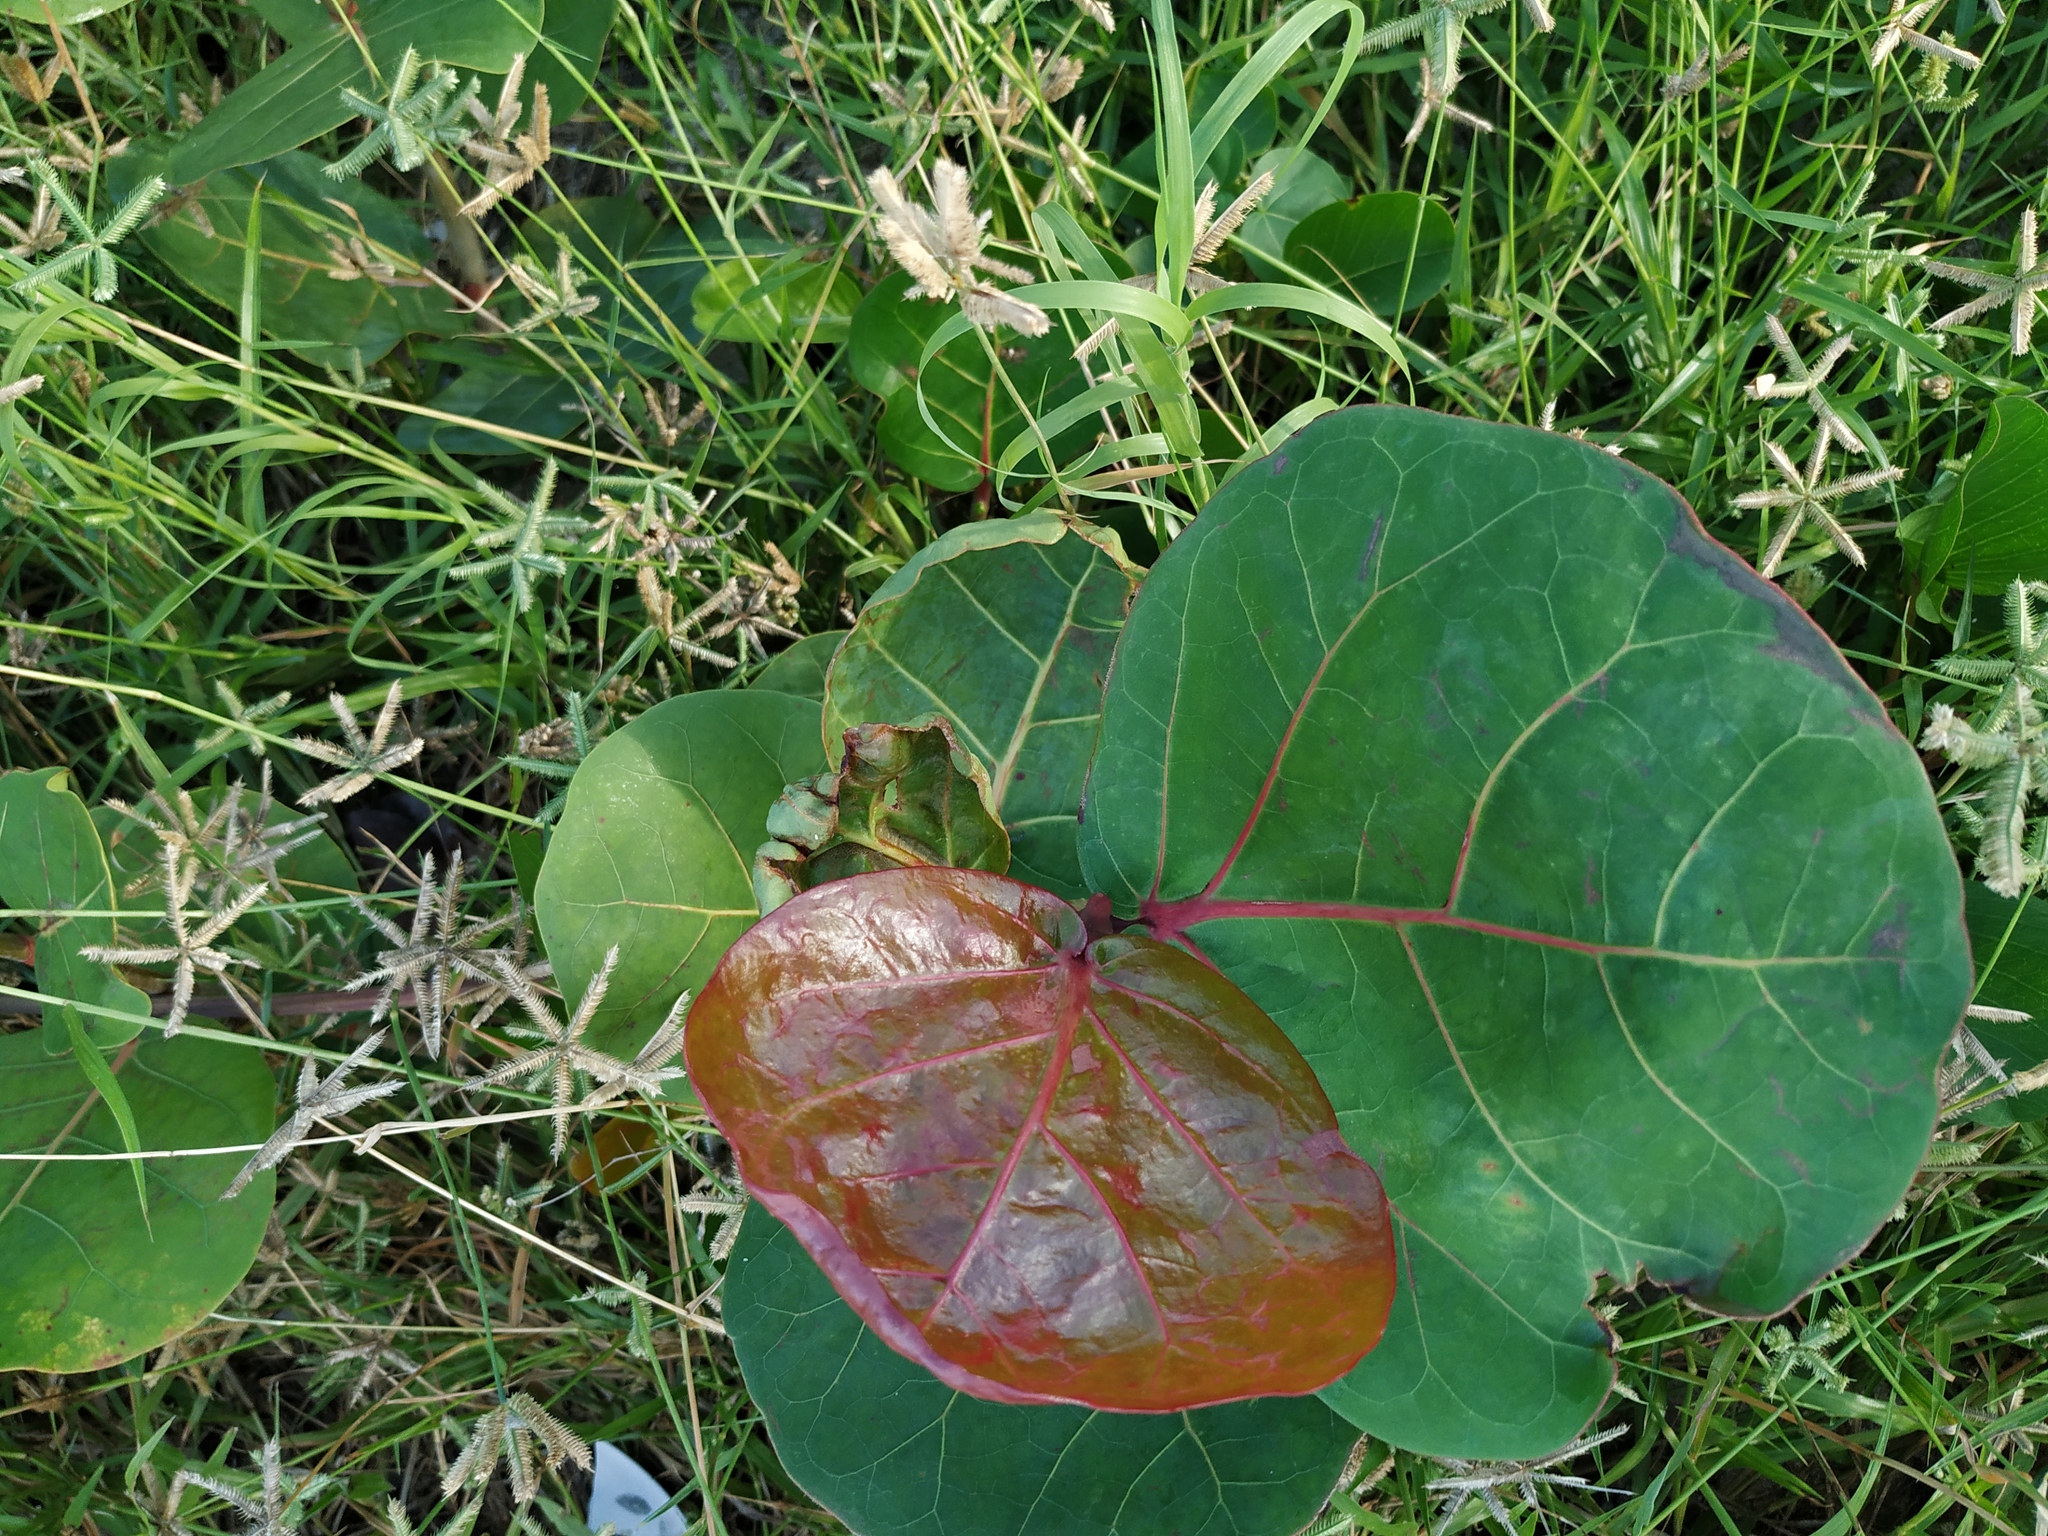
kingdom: Plantae
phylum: Tracheophyta
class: Magnoliopsida
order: Caryophyllales
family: Polygonaceae
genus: Coccoloba
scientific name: Coccoloba uvifera
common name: Seagrape
